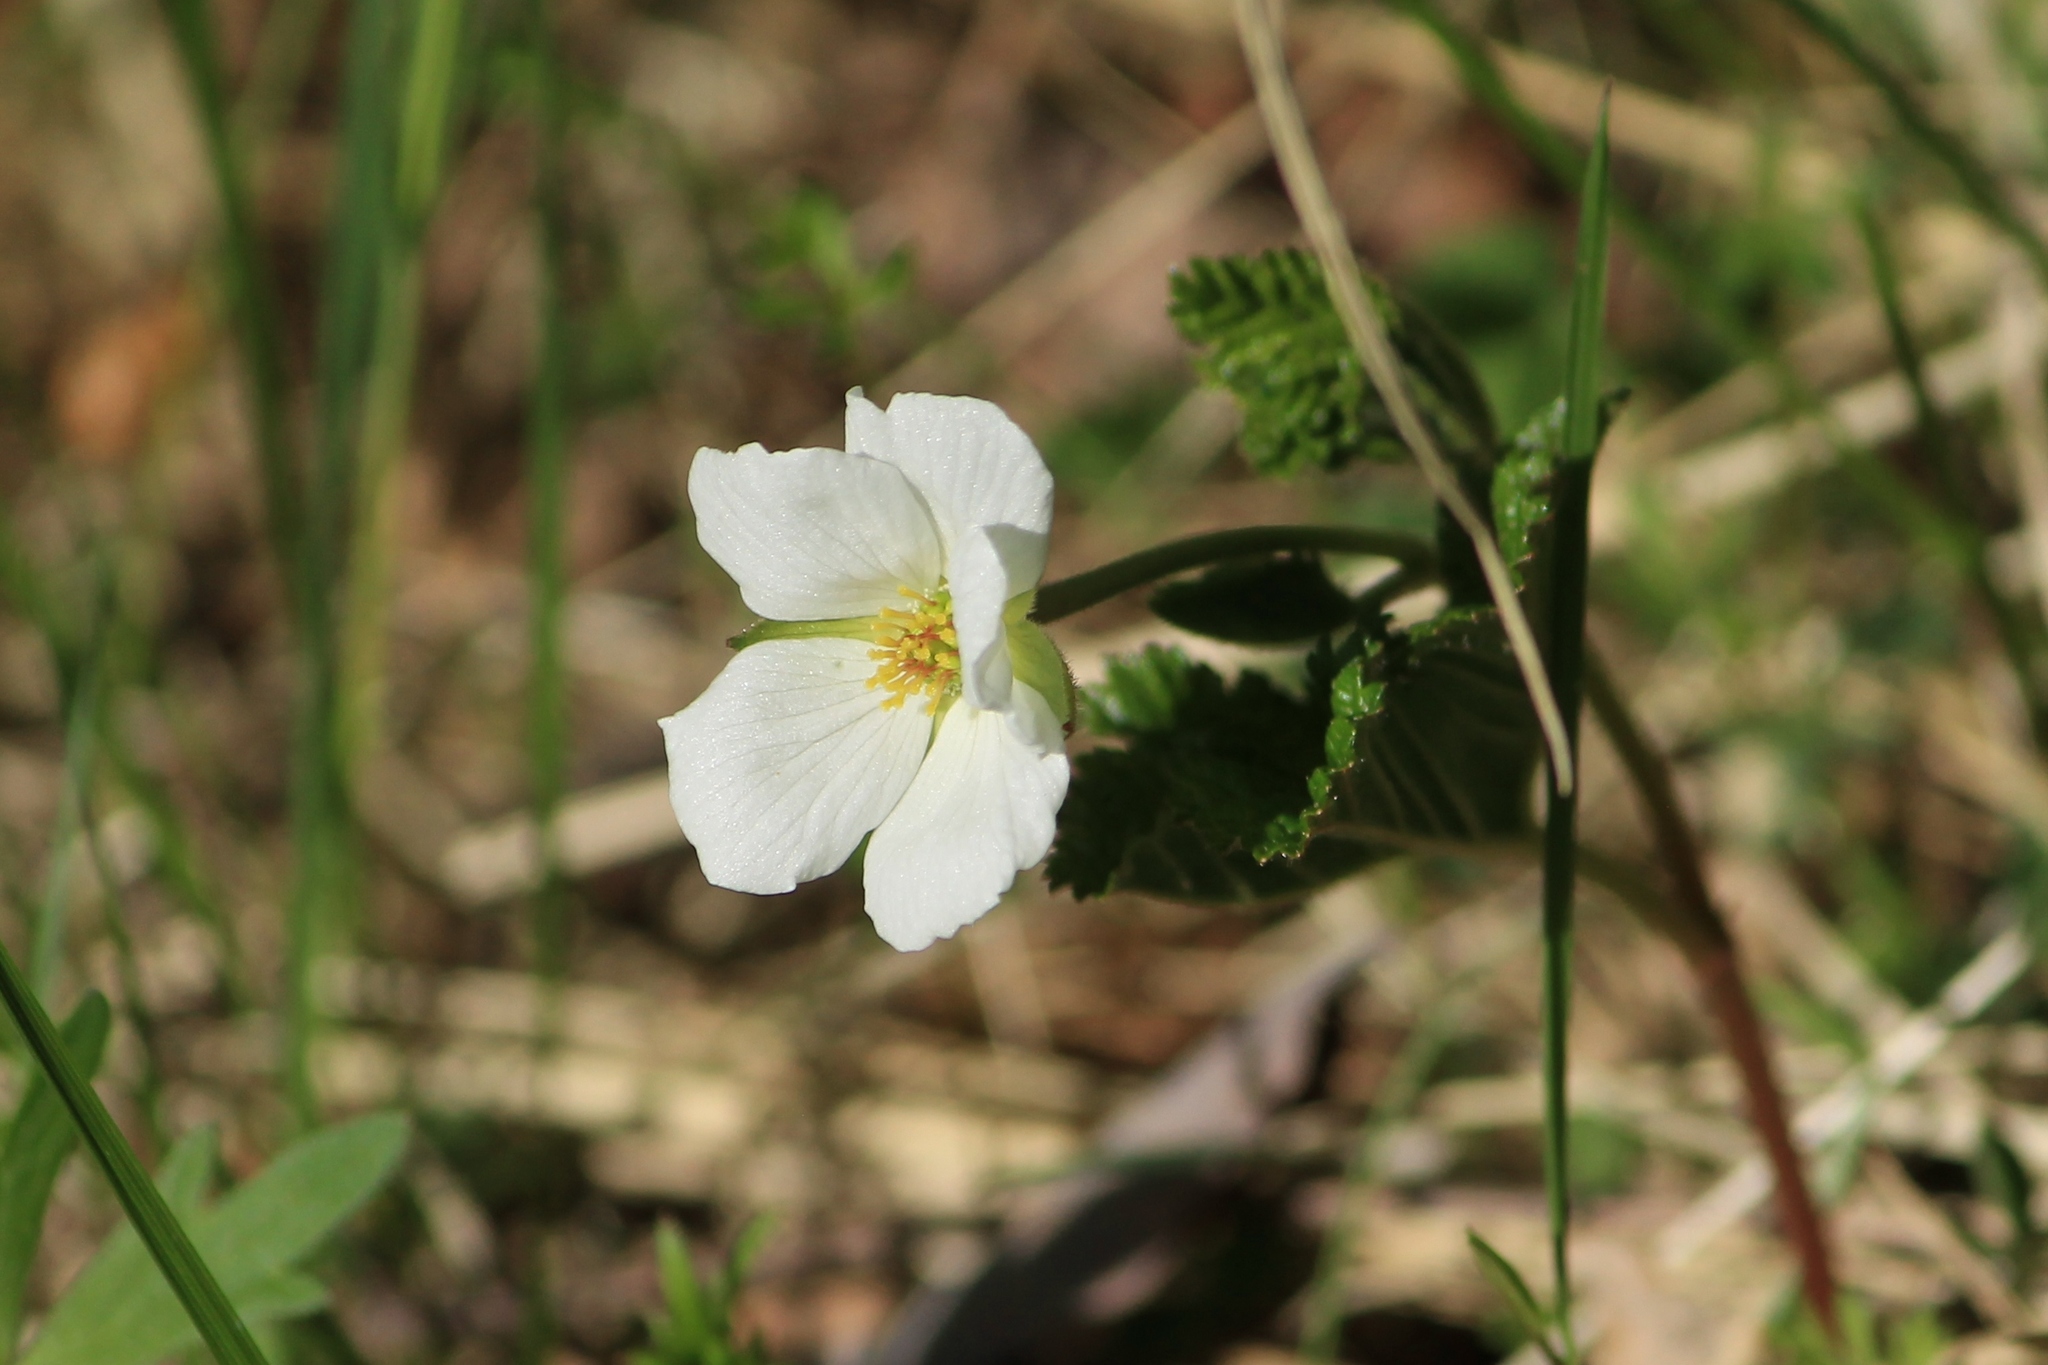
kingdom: Plantae
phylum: Tracheophyta
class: Magnoliopsida
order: Rosales
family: Rosaceae
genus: Rubus
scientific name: Rubus chamaemorus
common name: Cloudberry
